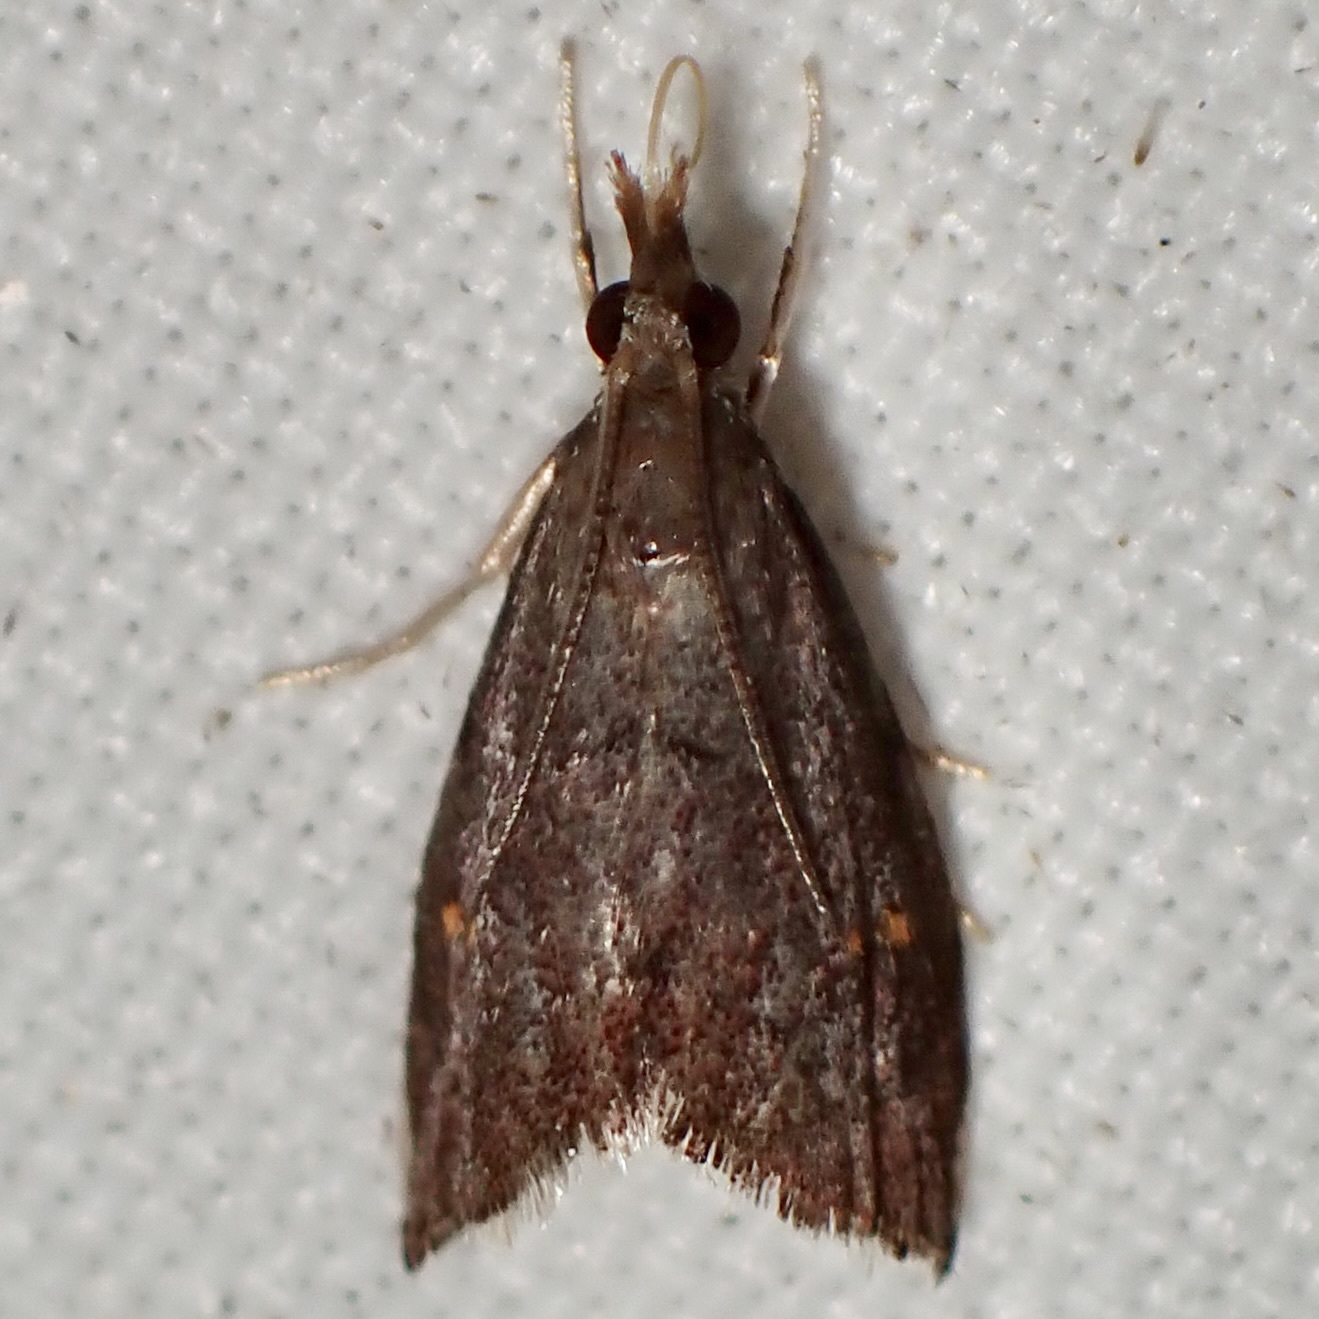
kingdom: Animalia
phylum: Arthropoda
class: Insecta
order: Lepidoptera
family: Crambidae
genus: Microcausta
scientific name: Microcausta bipunctalis
